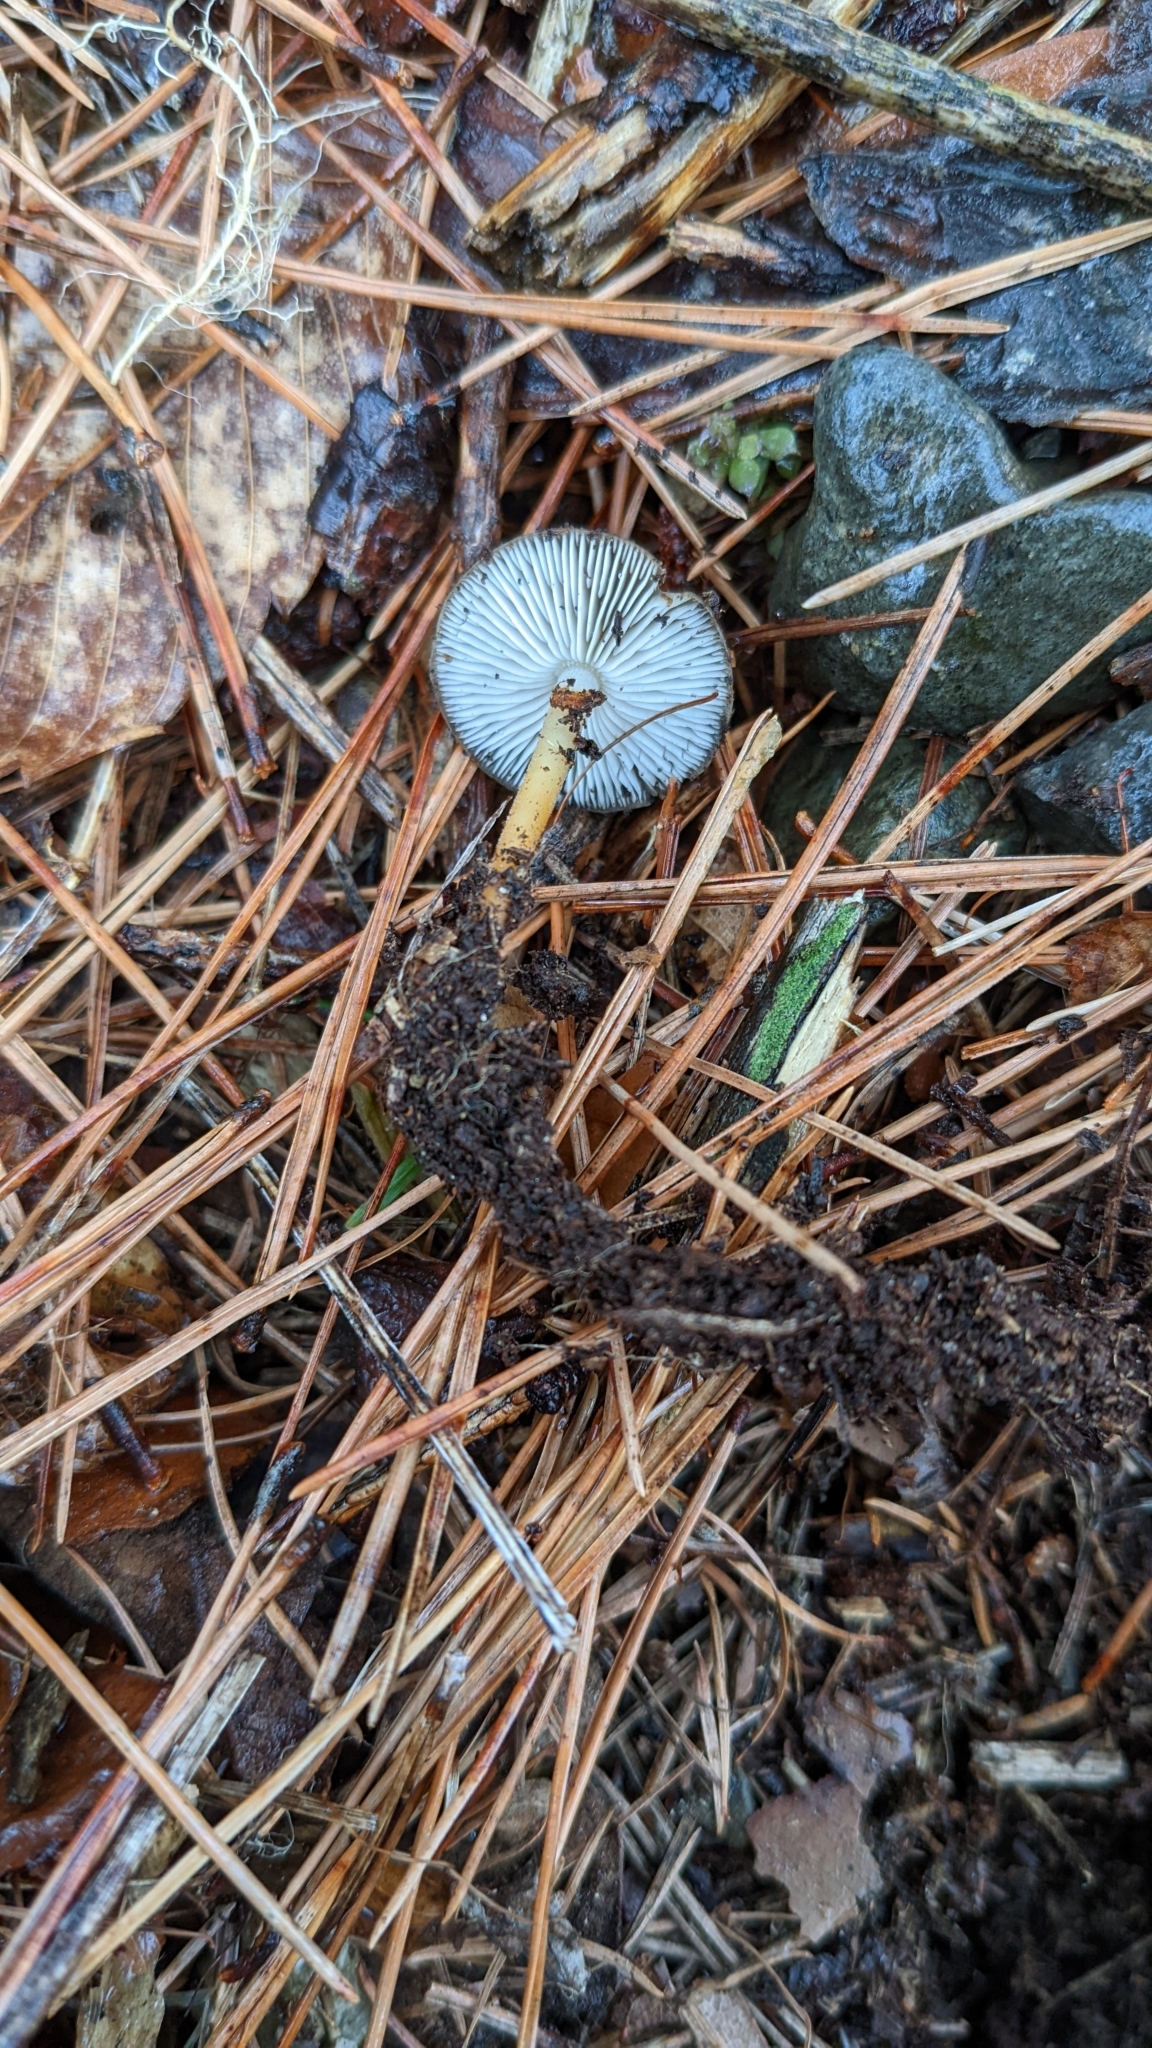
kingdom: Fungi
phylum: Basidiomycota
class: Agaricomycetes
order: Agaricales
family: Physalacriaceae
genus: Strobilurus
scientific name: Strobilurus stephanocystis
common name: Russian conecap
